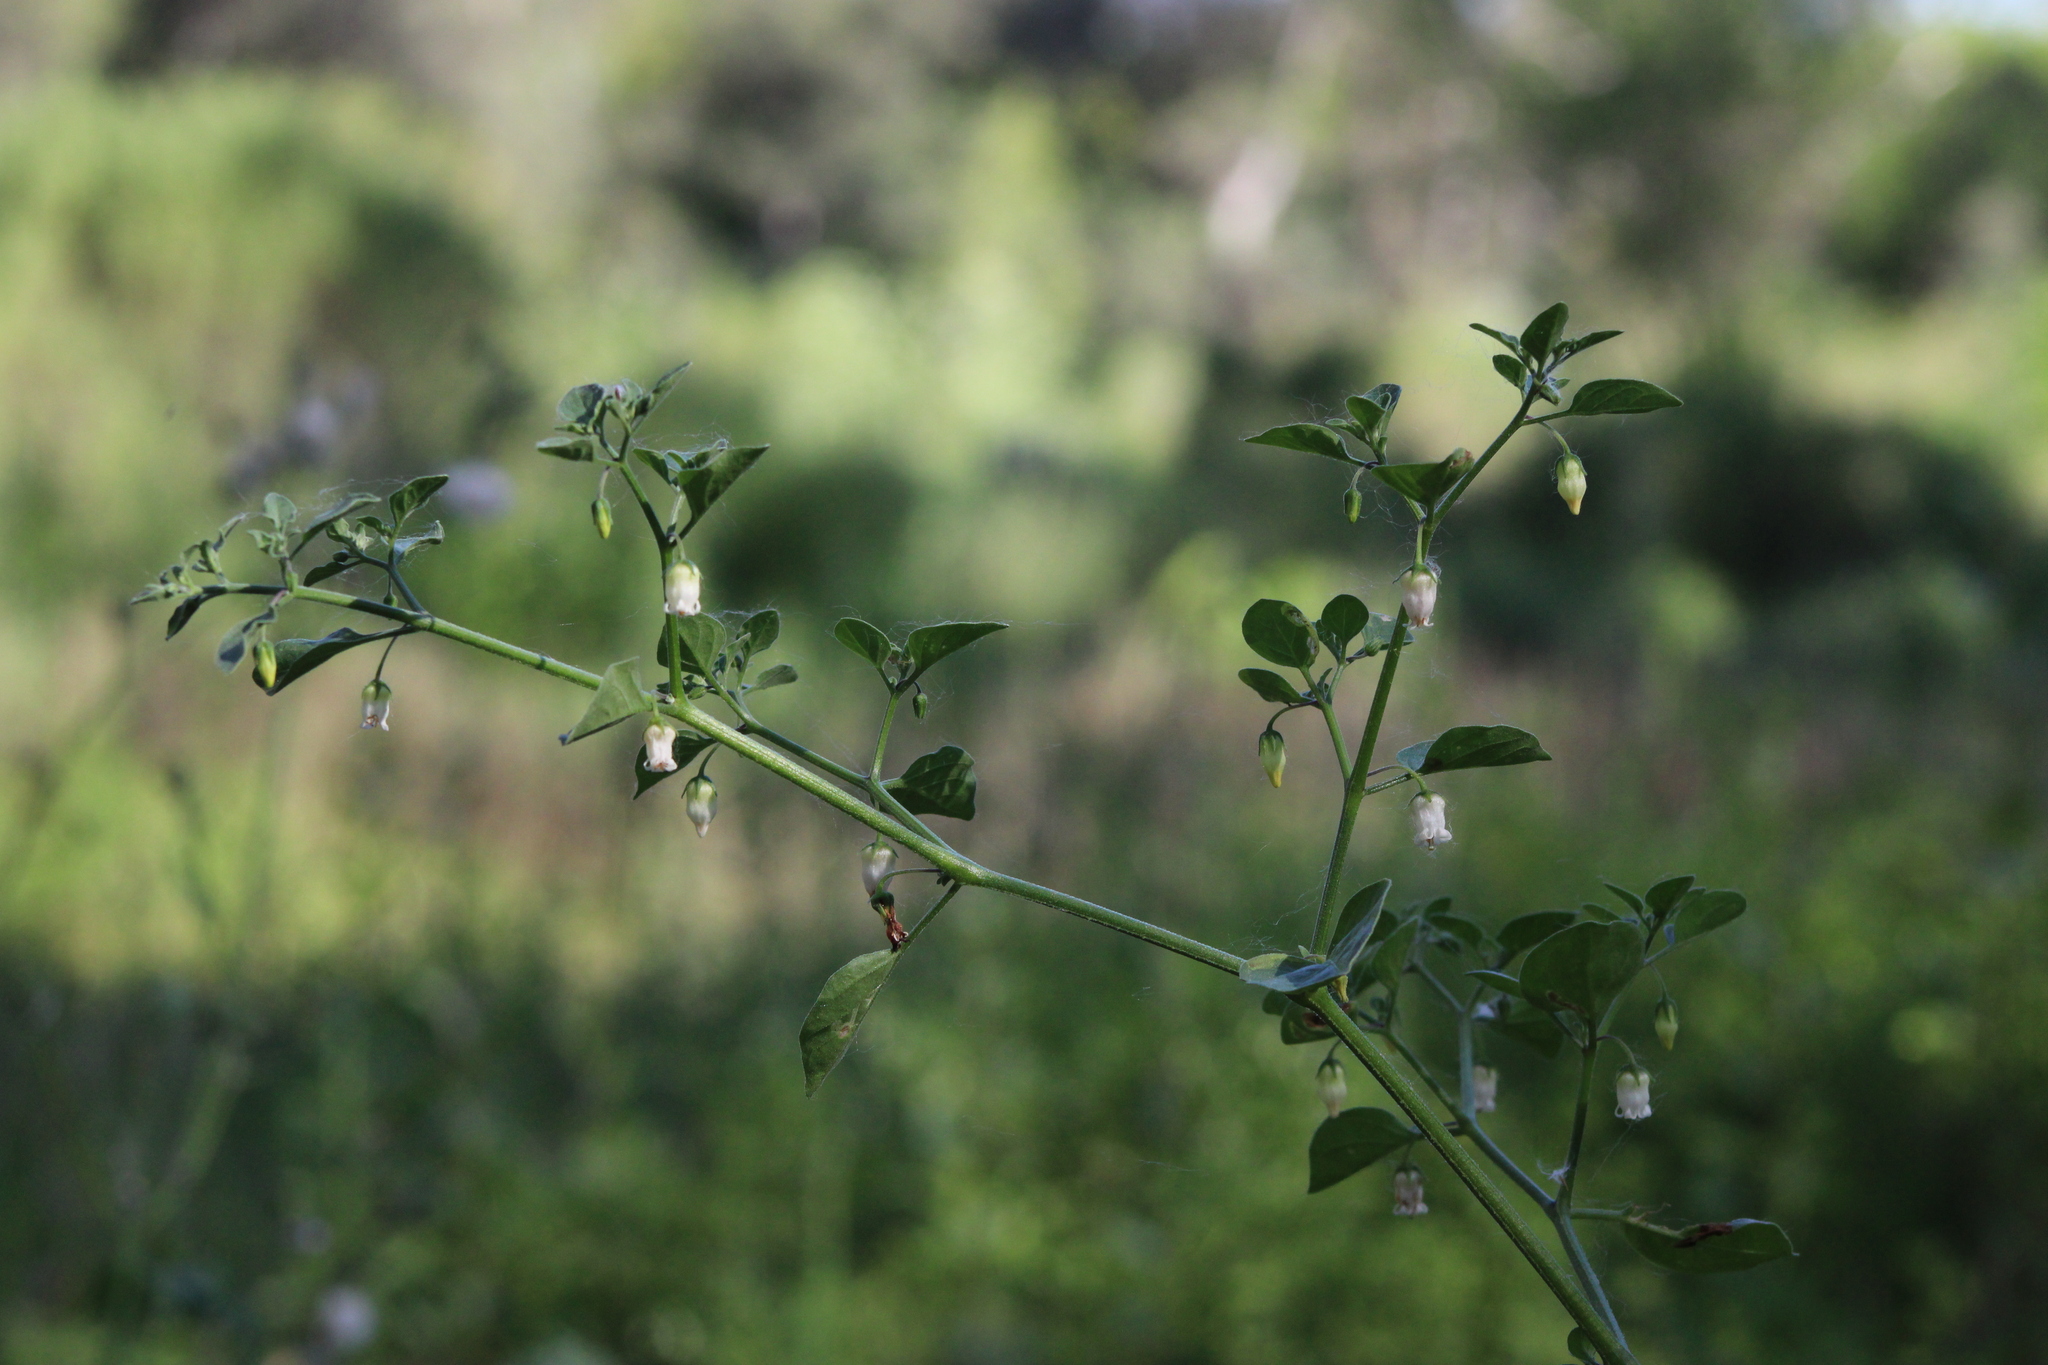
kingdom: Plantae
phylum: Tracheophyta
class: Magnoliopsida
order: Solanales
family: Solanaceae
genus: Salpichroa
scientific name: Salpichroa origanifolia
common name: Lily-of-the-valley-vine
